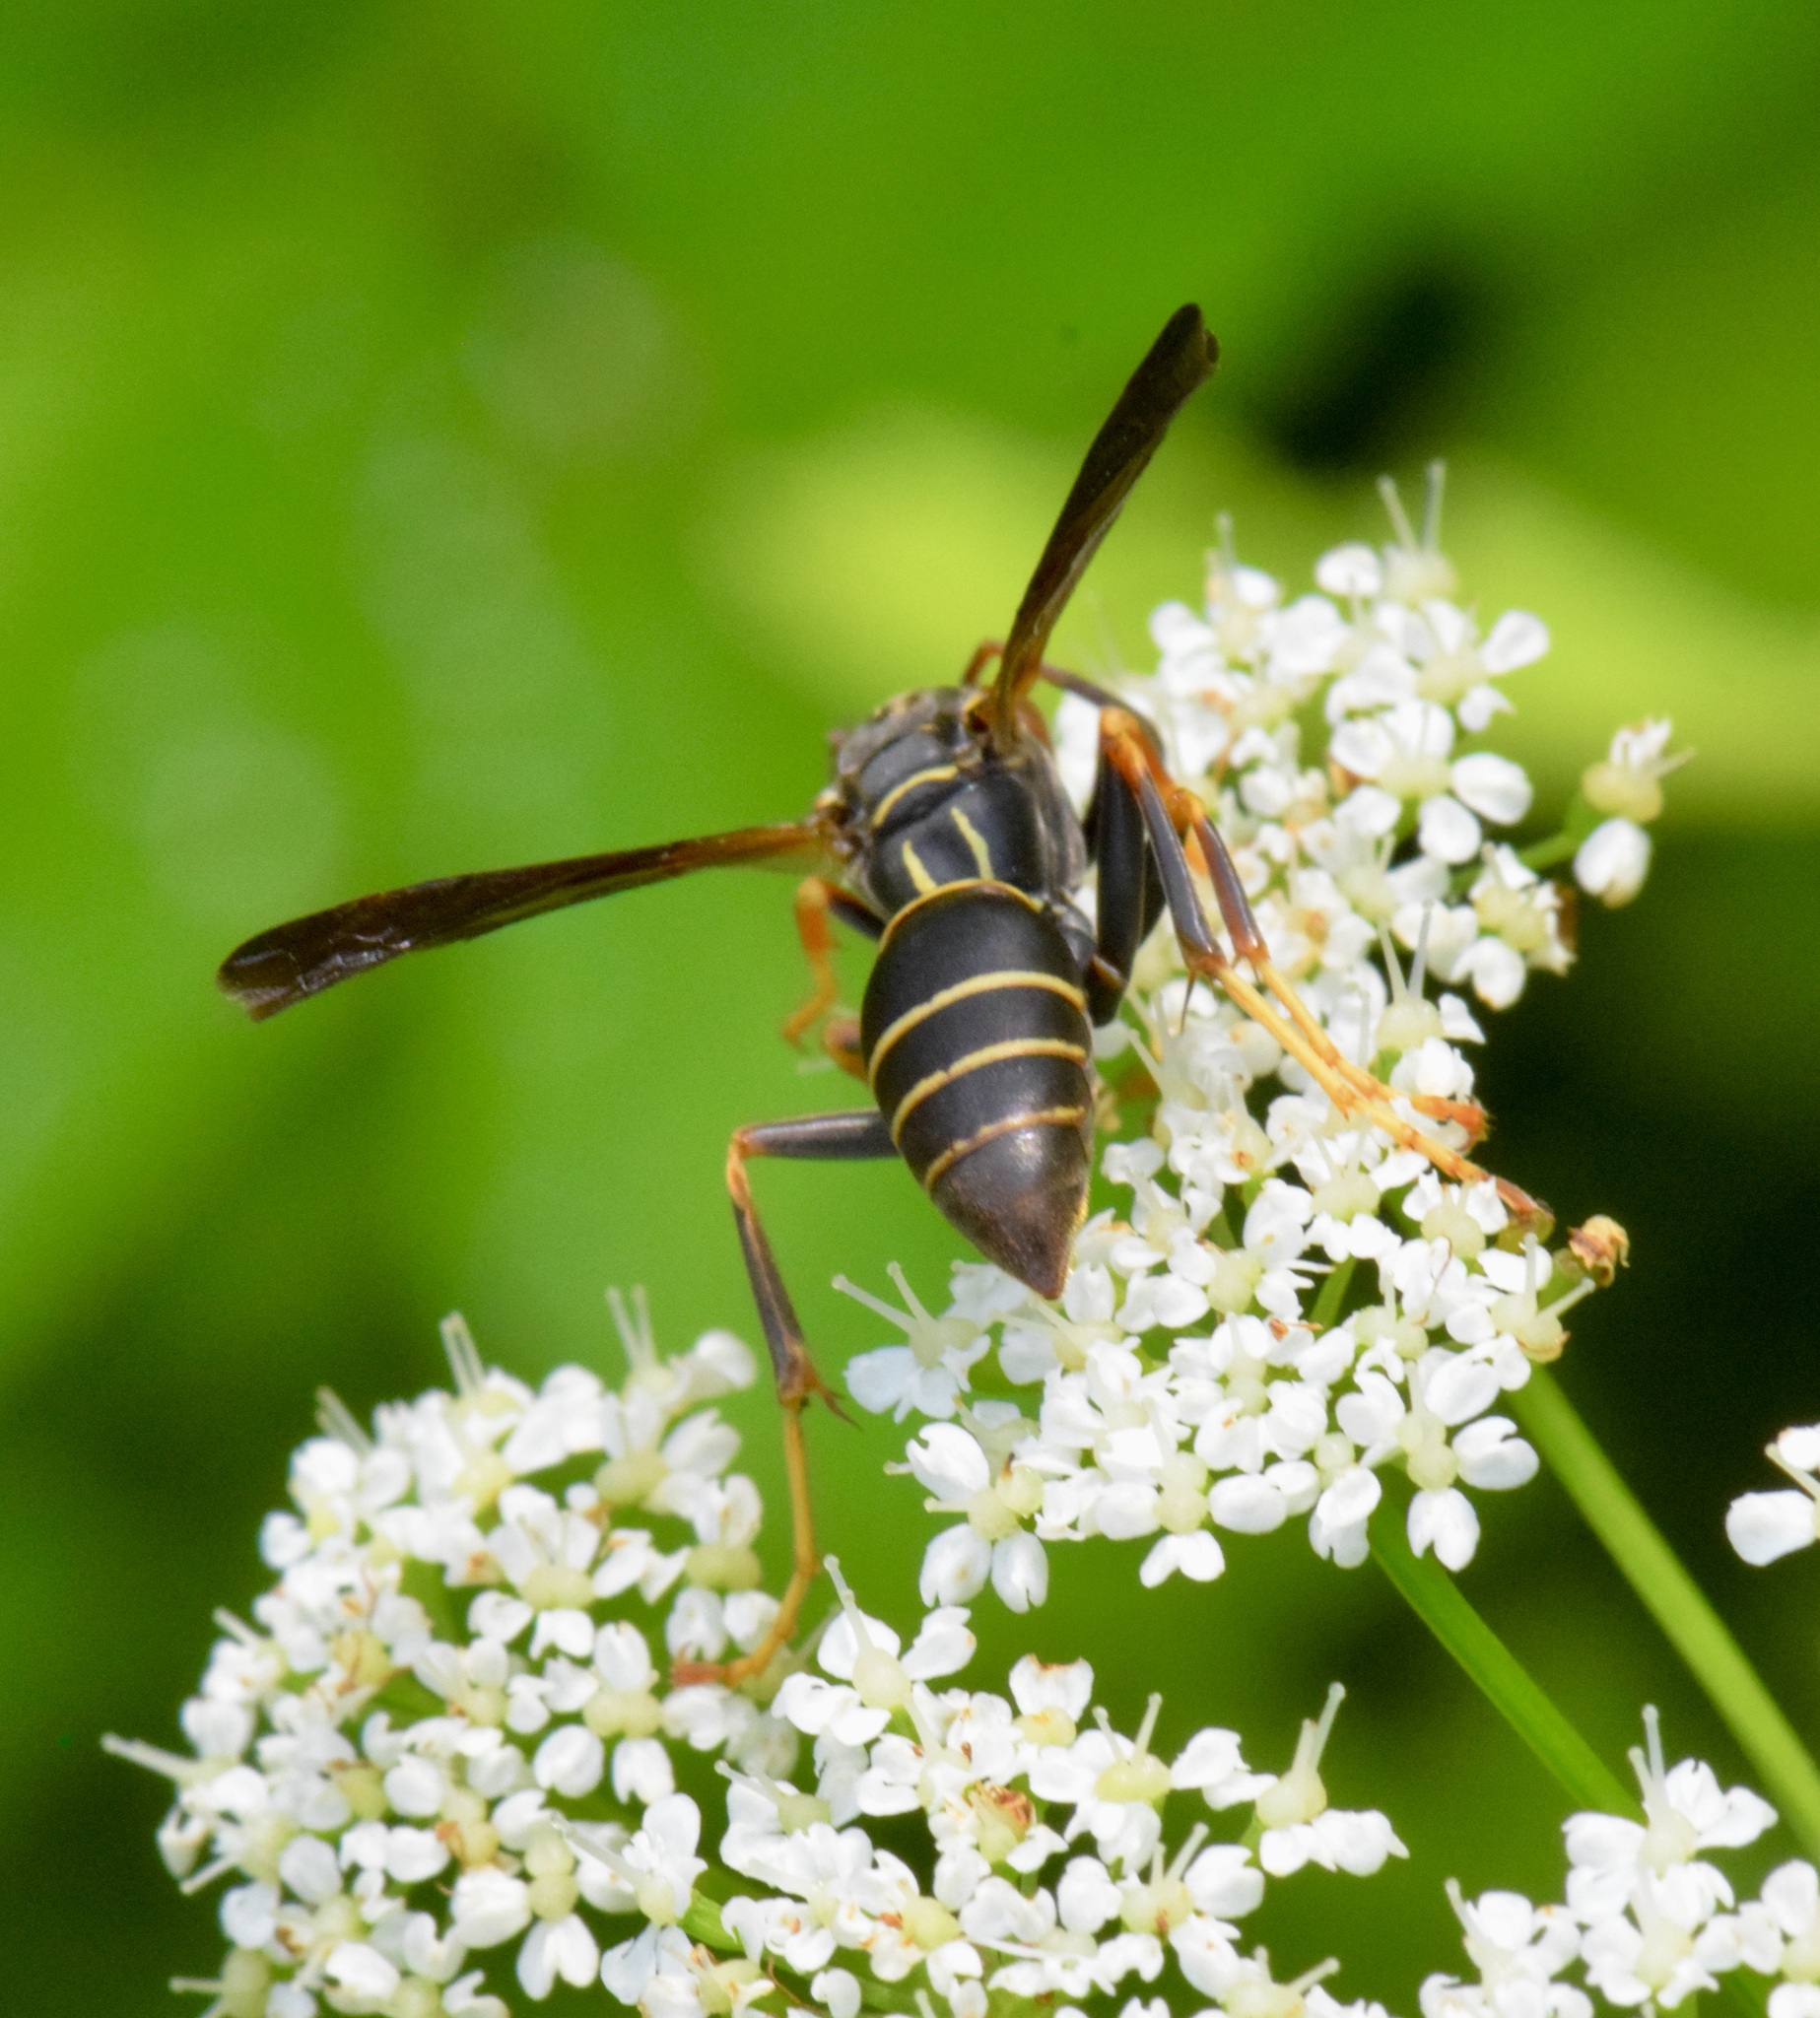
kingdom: Animalia
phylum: Arthropoda
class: Insecta
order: Hymenoptera
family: Eumenidae
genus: Polistes
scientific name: Polistes fuscatus
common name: Dark paper wasp
